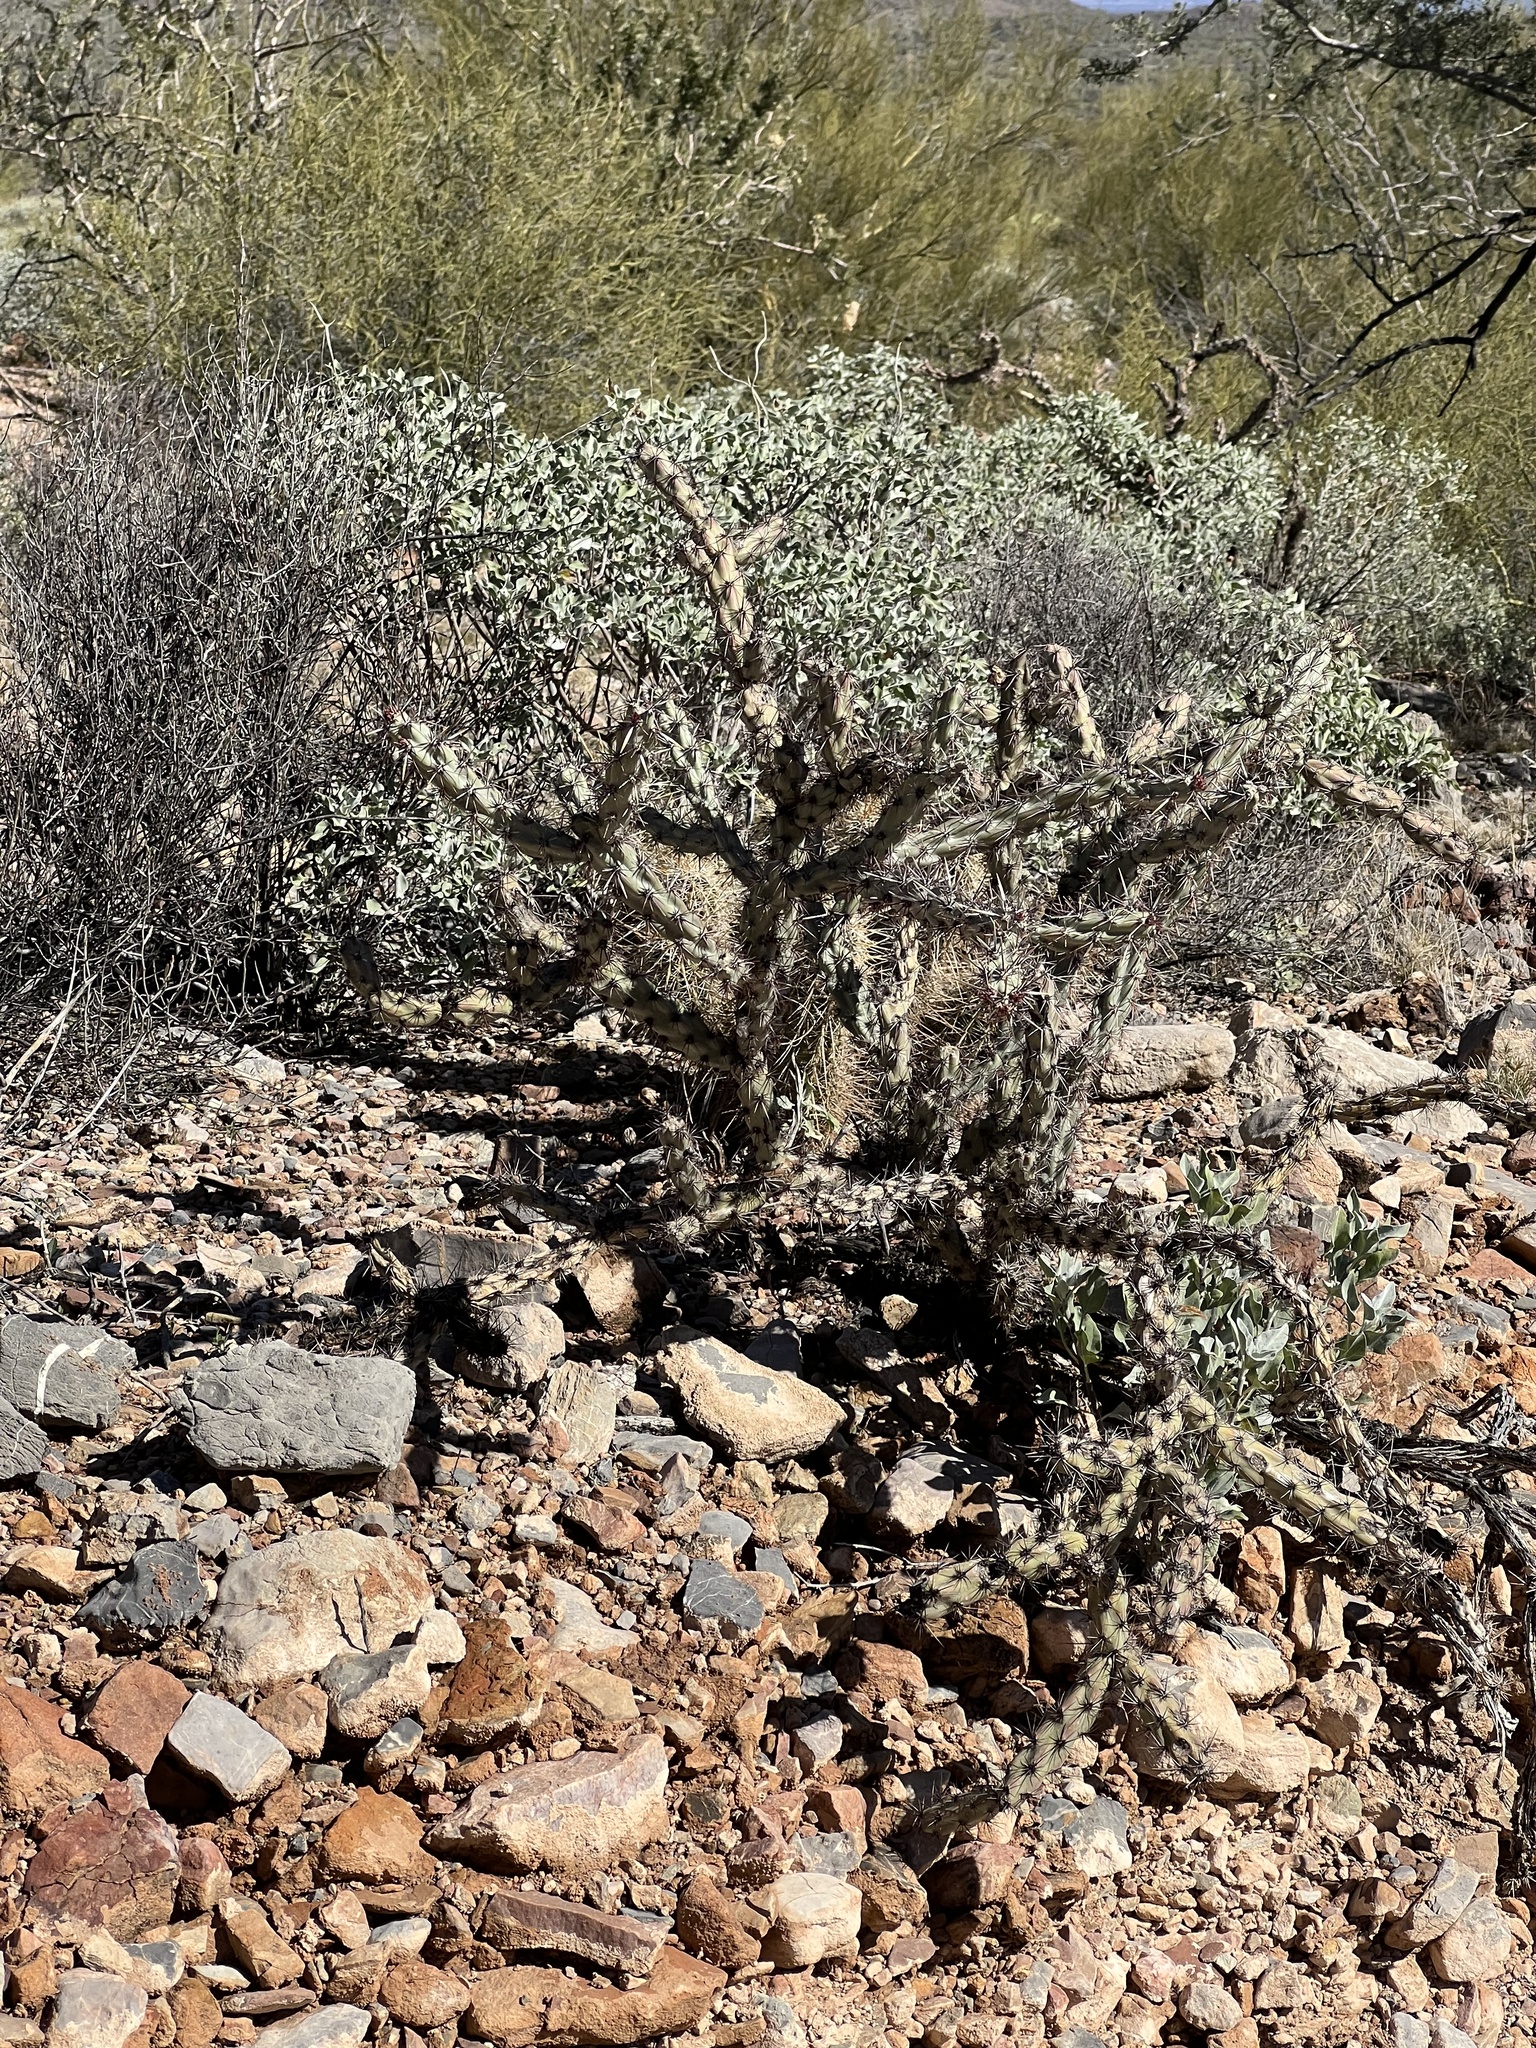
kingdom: Plantae
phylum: Tracheophyta
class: Magnoliopsida
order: Caryophyllales
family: Cactaceae
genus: Cylindropuntia
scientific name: Cylindropuntia acanthocarpa
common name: Buckhorn cholla
